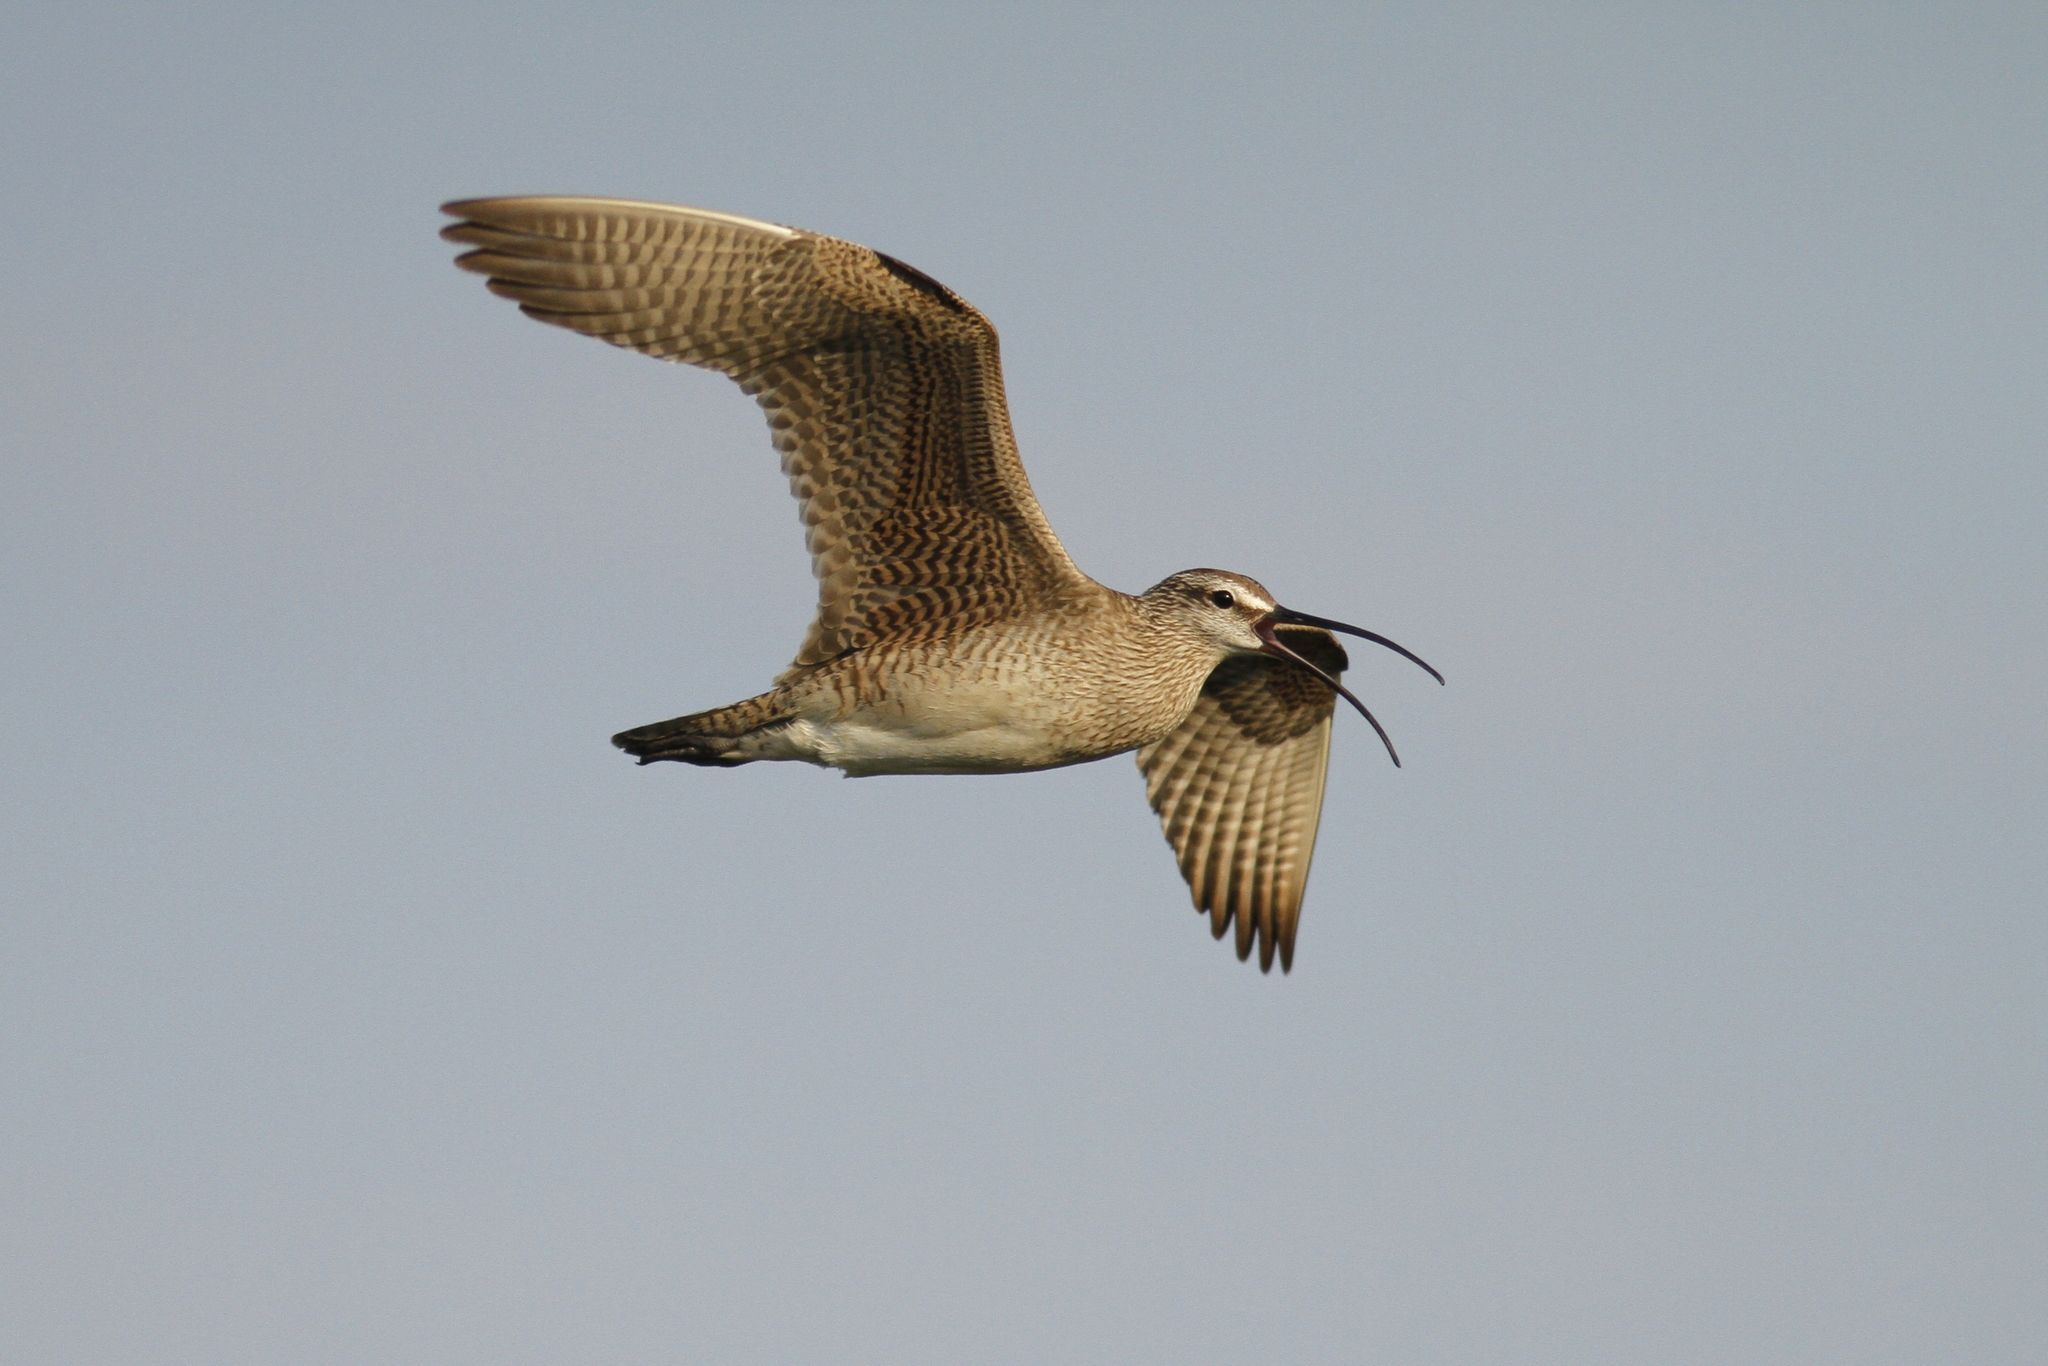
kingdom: Animalia
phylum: Chordata
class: Aves
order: Charadriiformes
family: Scolopacidae
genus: Numenius
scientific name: Numenius hudsonicus
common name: Hudsonian whimbrel
